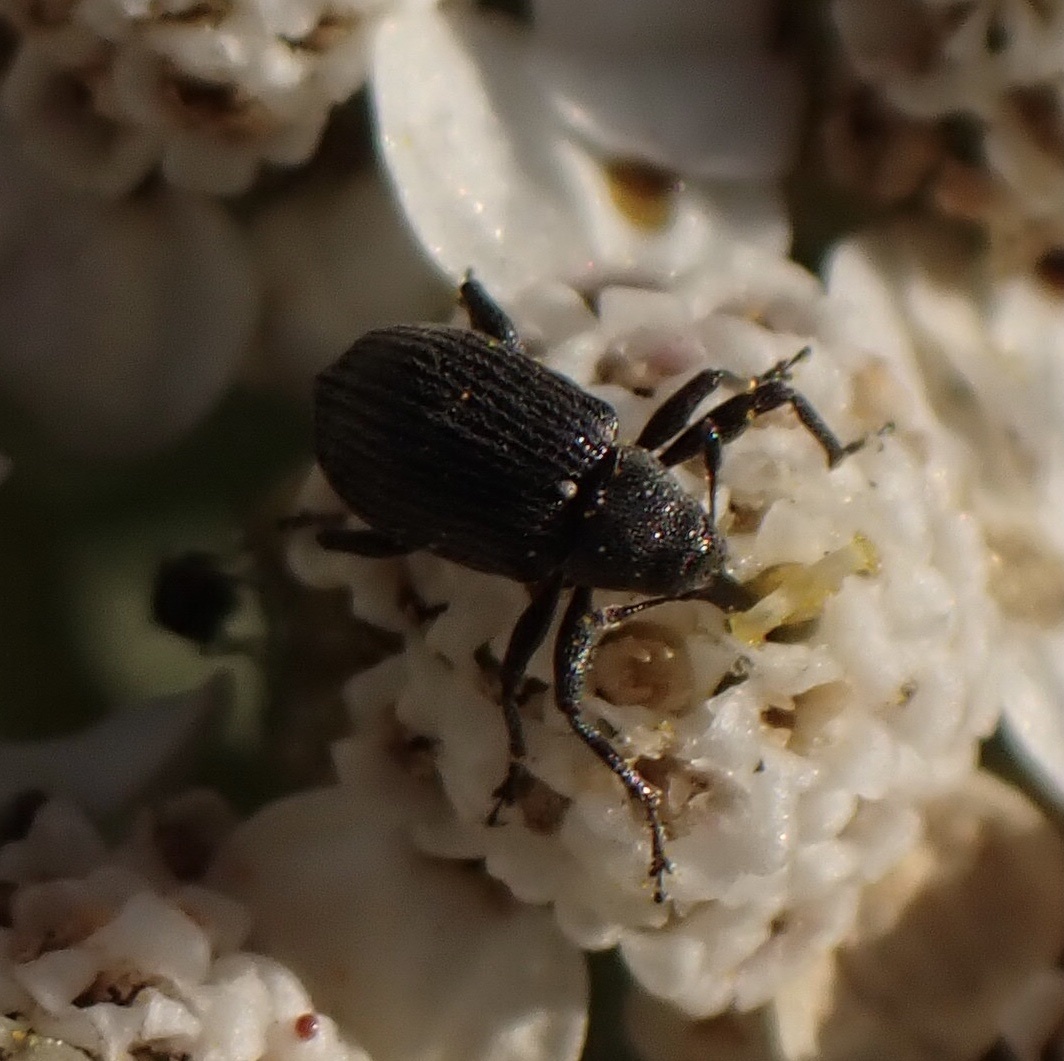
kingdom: Animalia
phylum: Arthropoda
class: Insecta
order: Coleoptera
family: Curculionidae
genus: Anthonomus
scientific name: Anthonomus rubi
